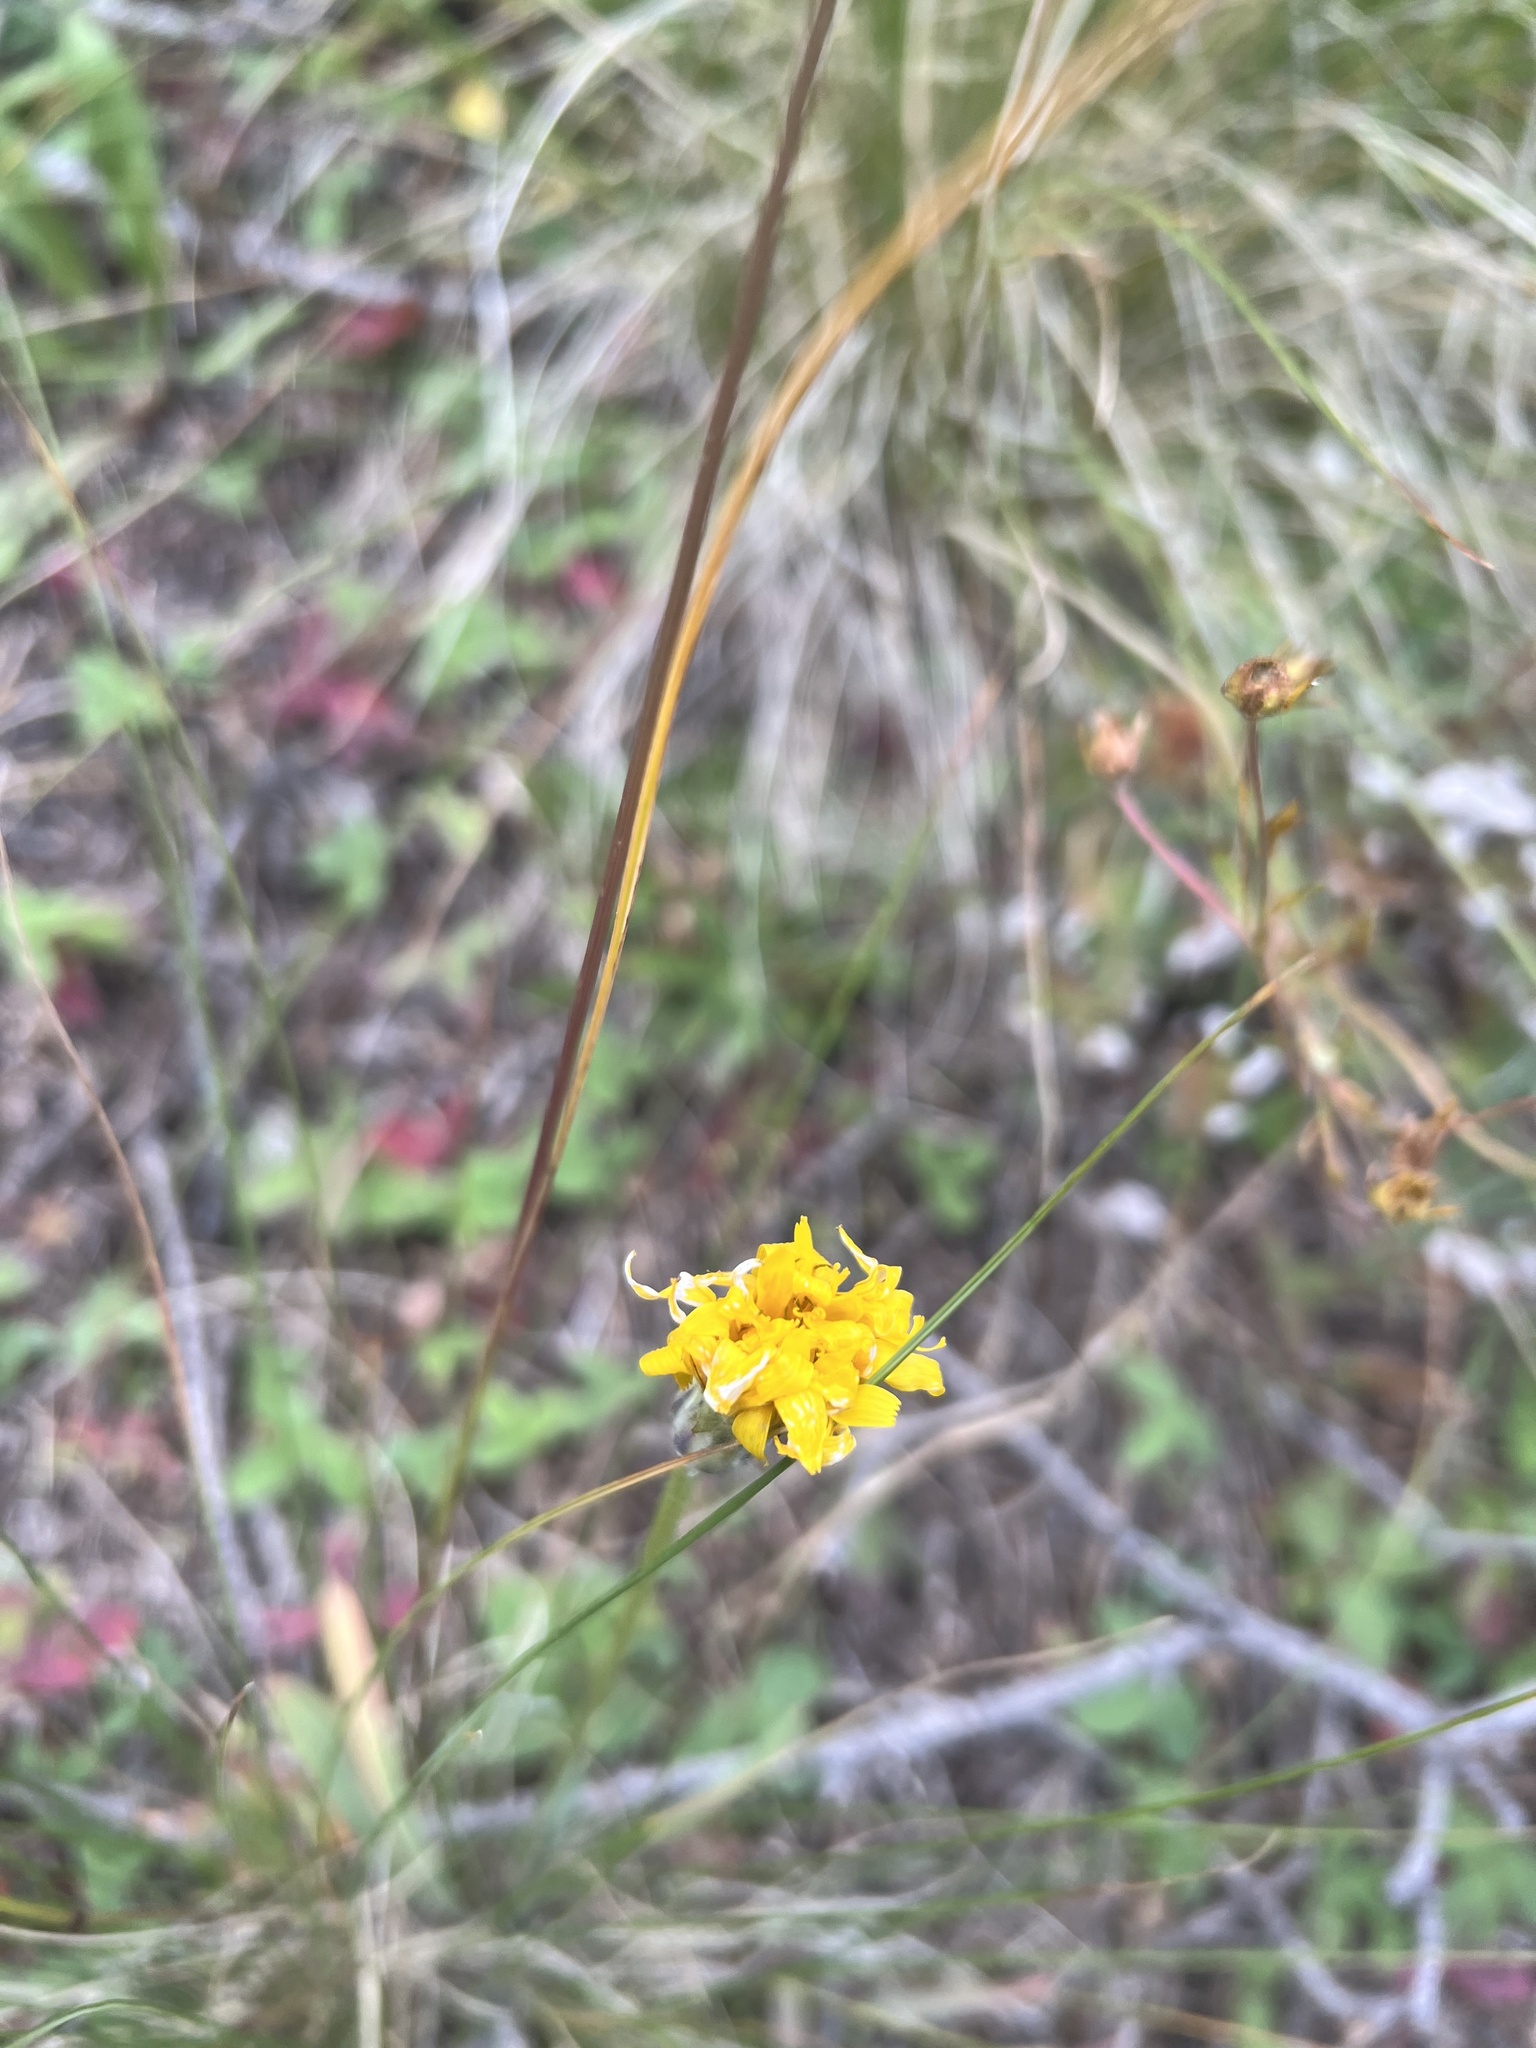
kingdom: Plantae
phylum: Tracheophyta
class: Magnoliopsida
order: Asterales
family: Asteraceae
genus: Agoseris
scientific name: Agoseris glauca
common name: Prairie agoseris
